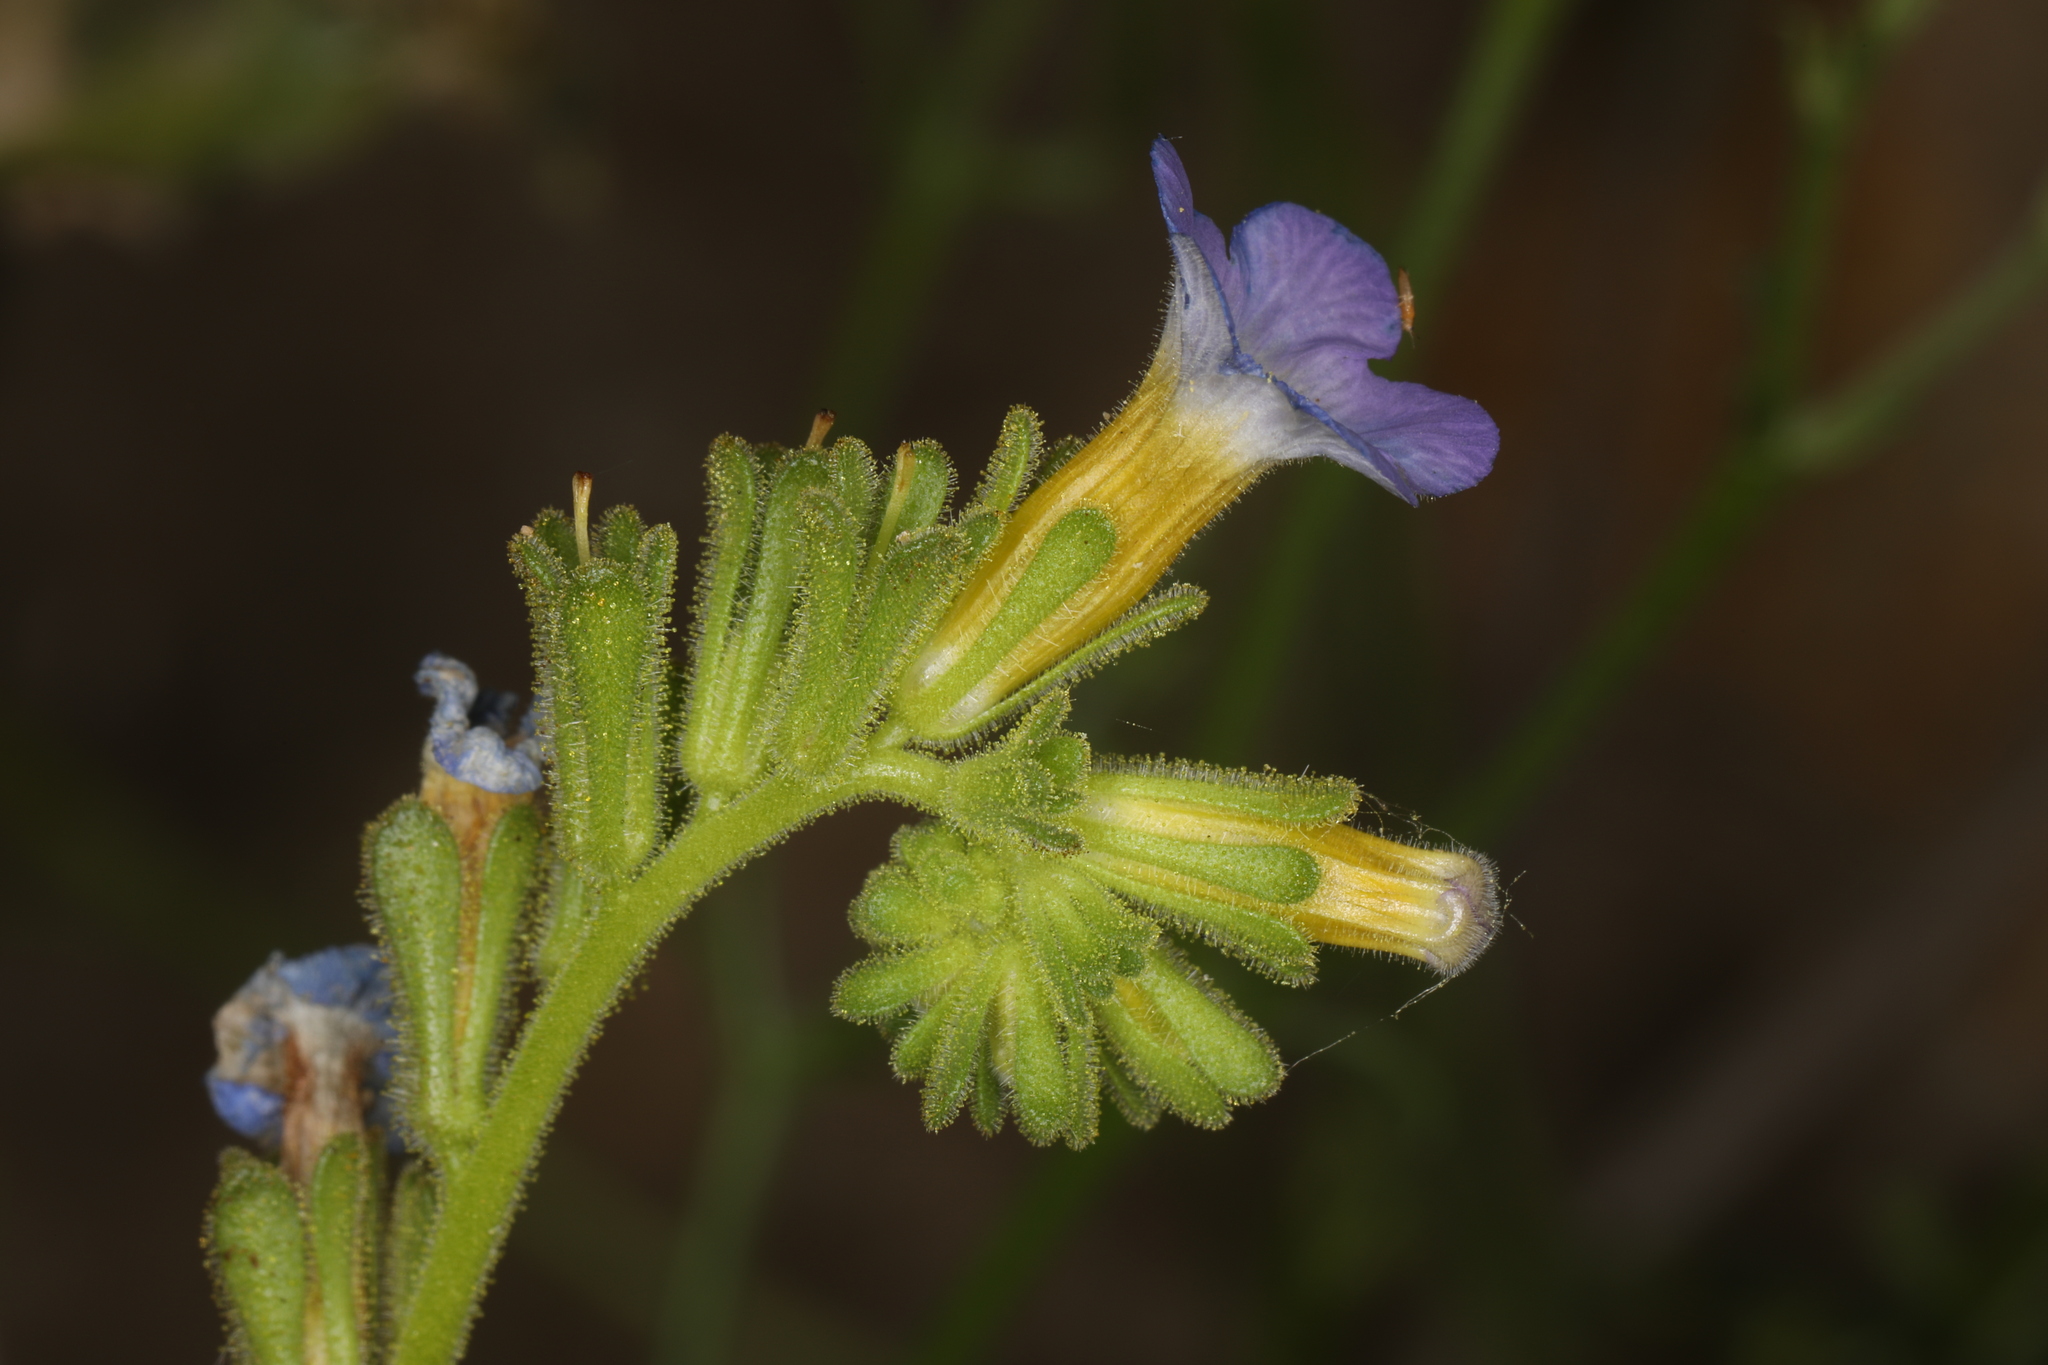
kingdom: Plantae
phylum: Tracheophyta
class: Magnoliopsida
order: Boraginales
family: Hydrophyllaceae
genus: Phacelia
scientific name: Phacelia fremontii
